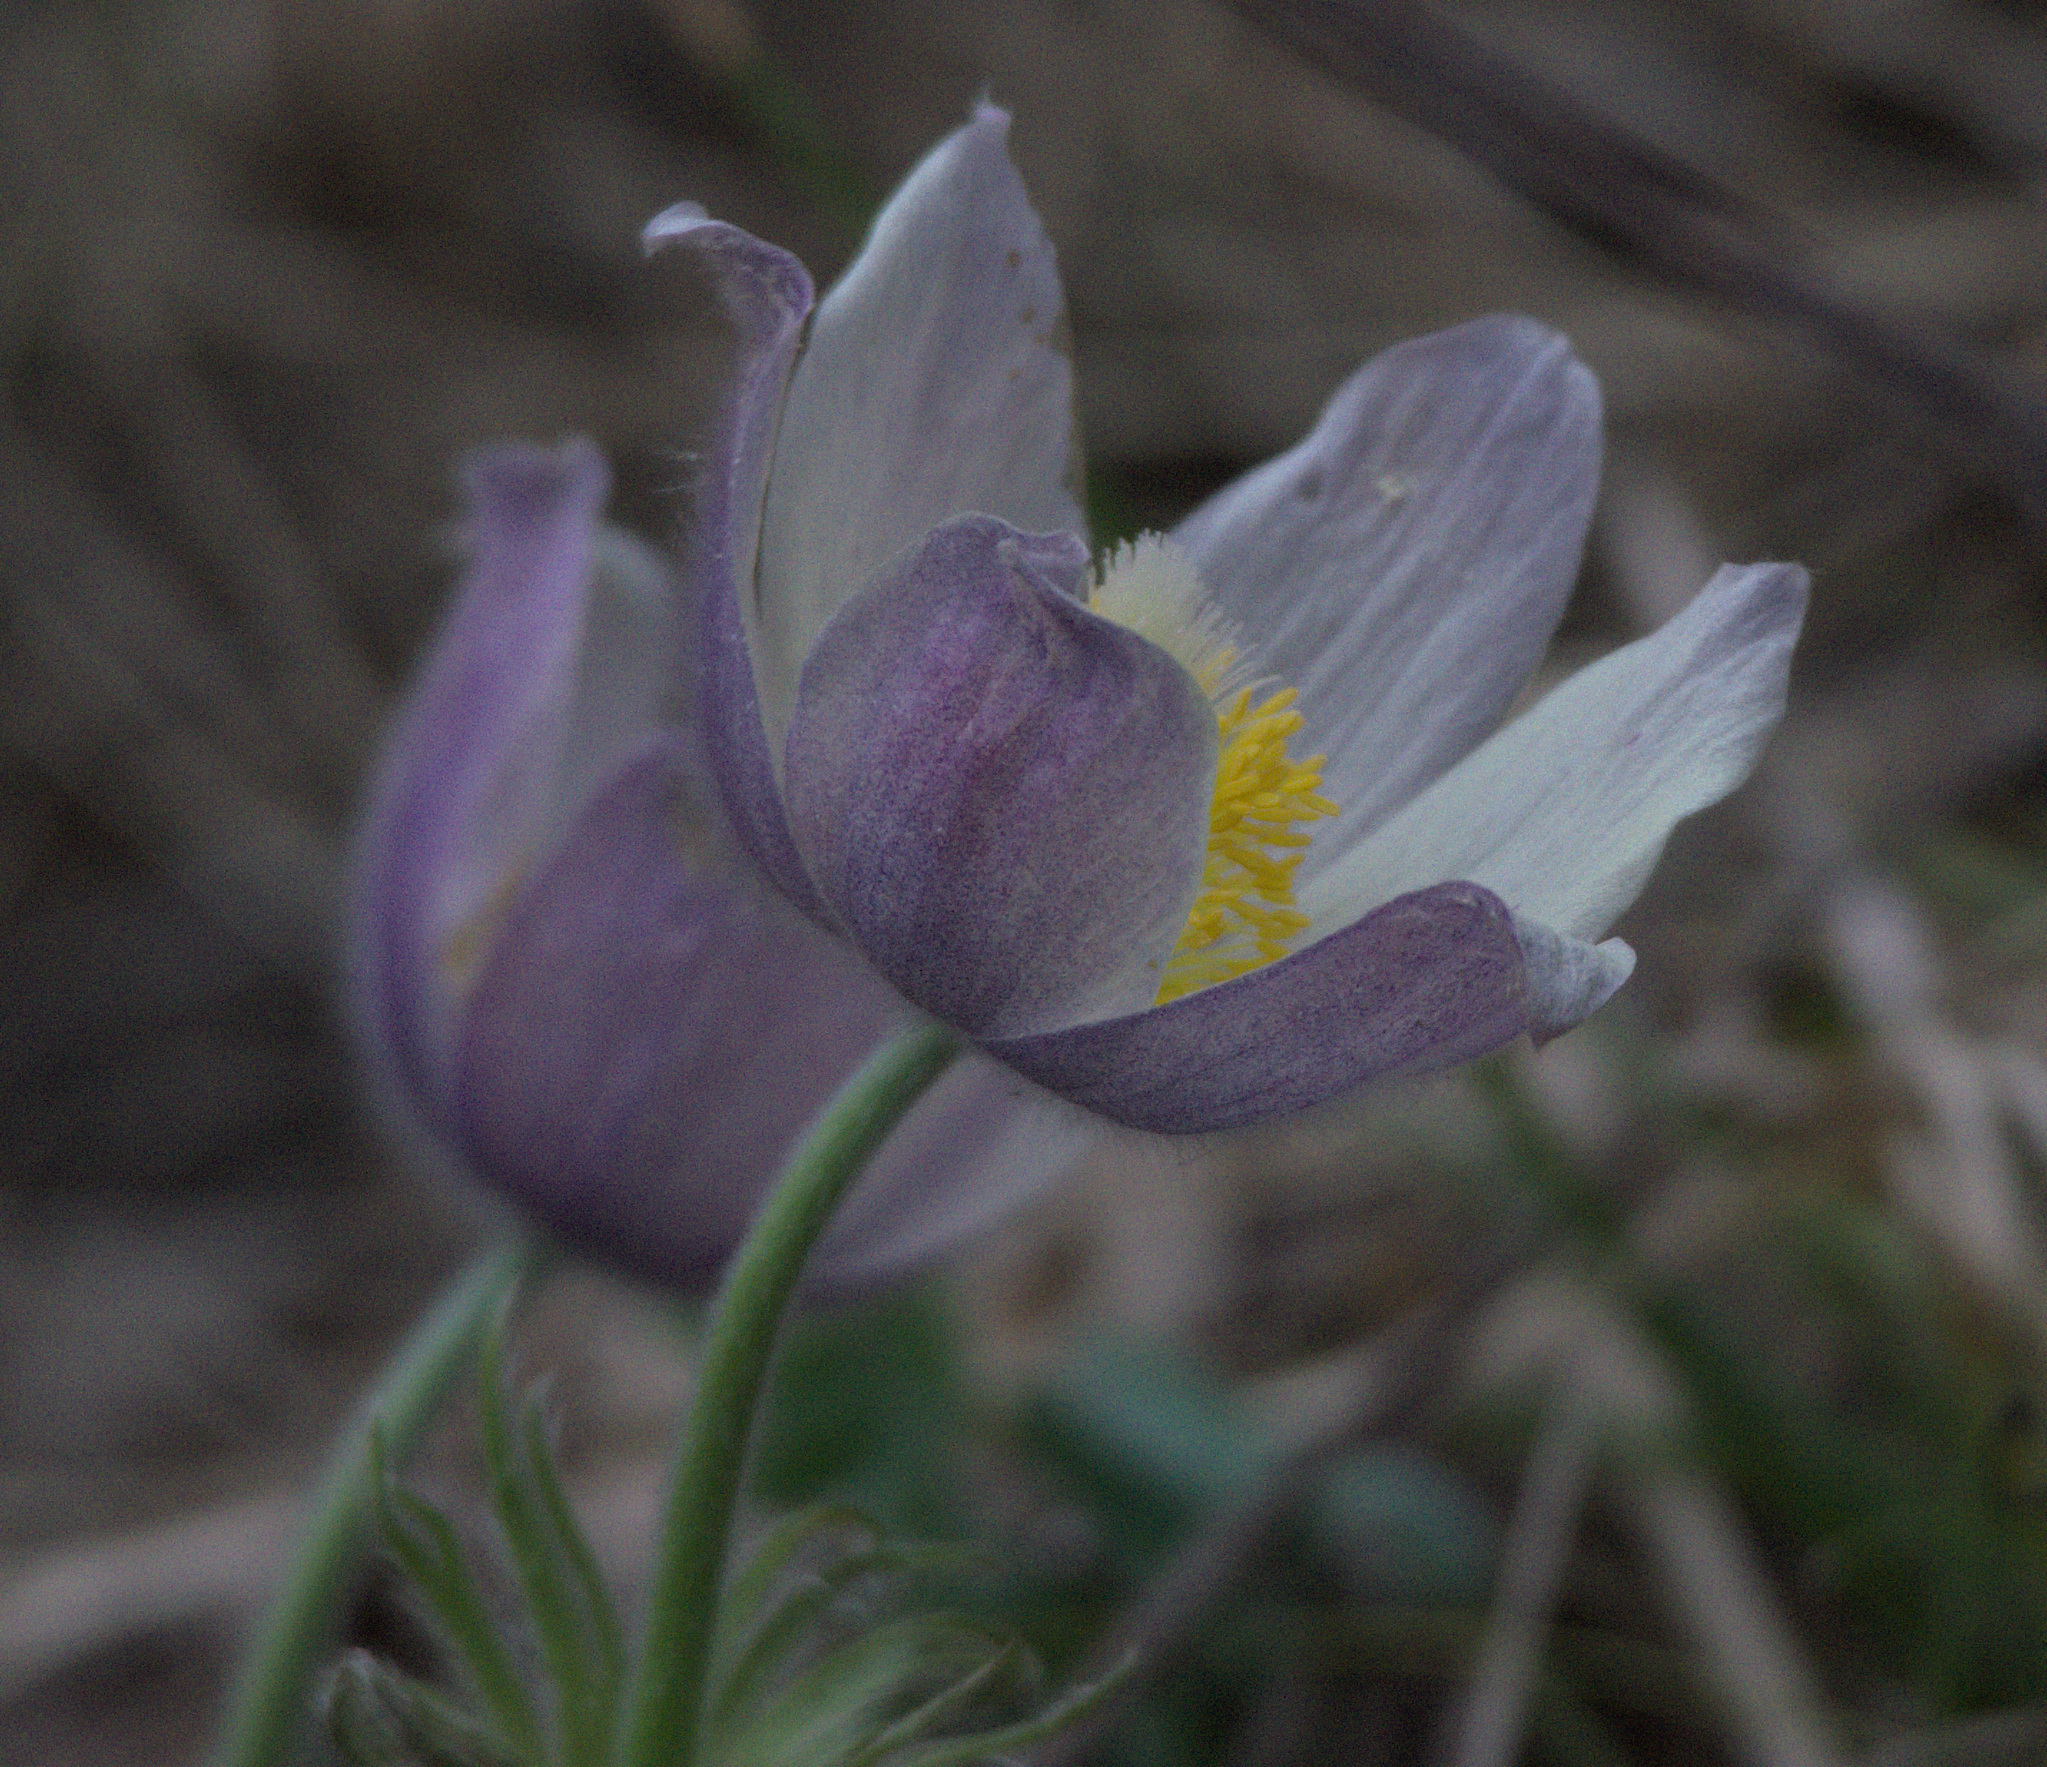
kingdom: Plantae
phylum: Tracheophyta
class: Magnoliopsida
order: Ranunculales
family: Ranunculaceae
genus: Pulsatilla
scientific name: Pulsatilla patens
